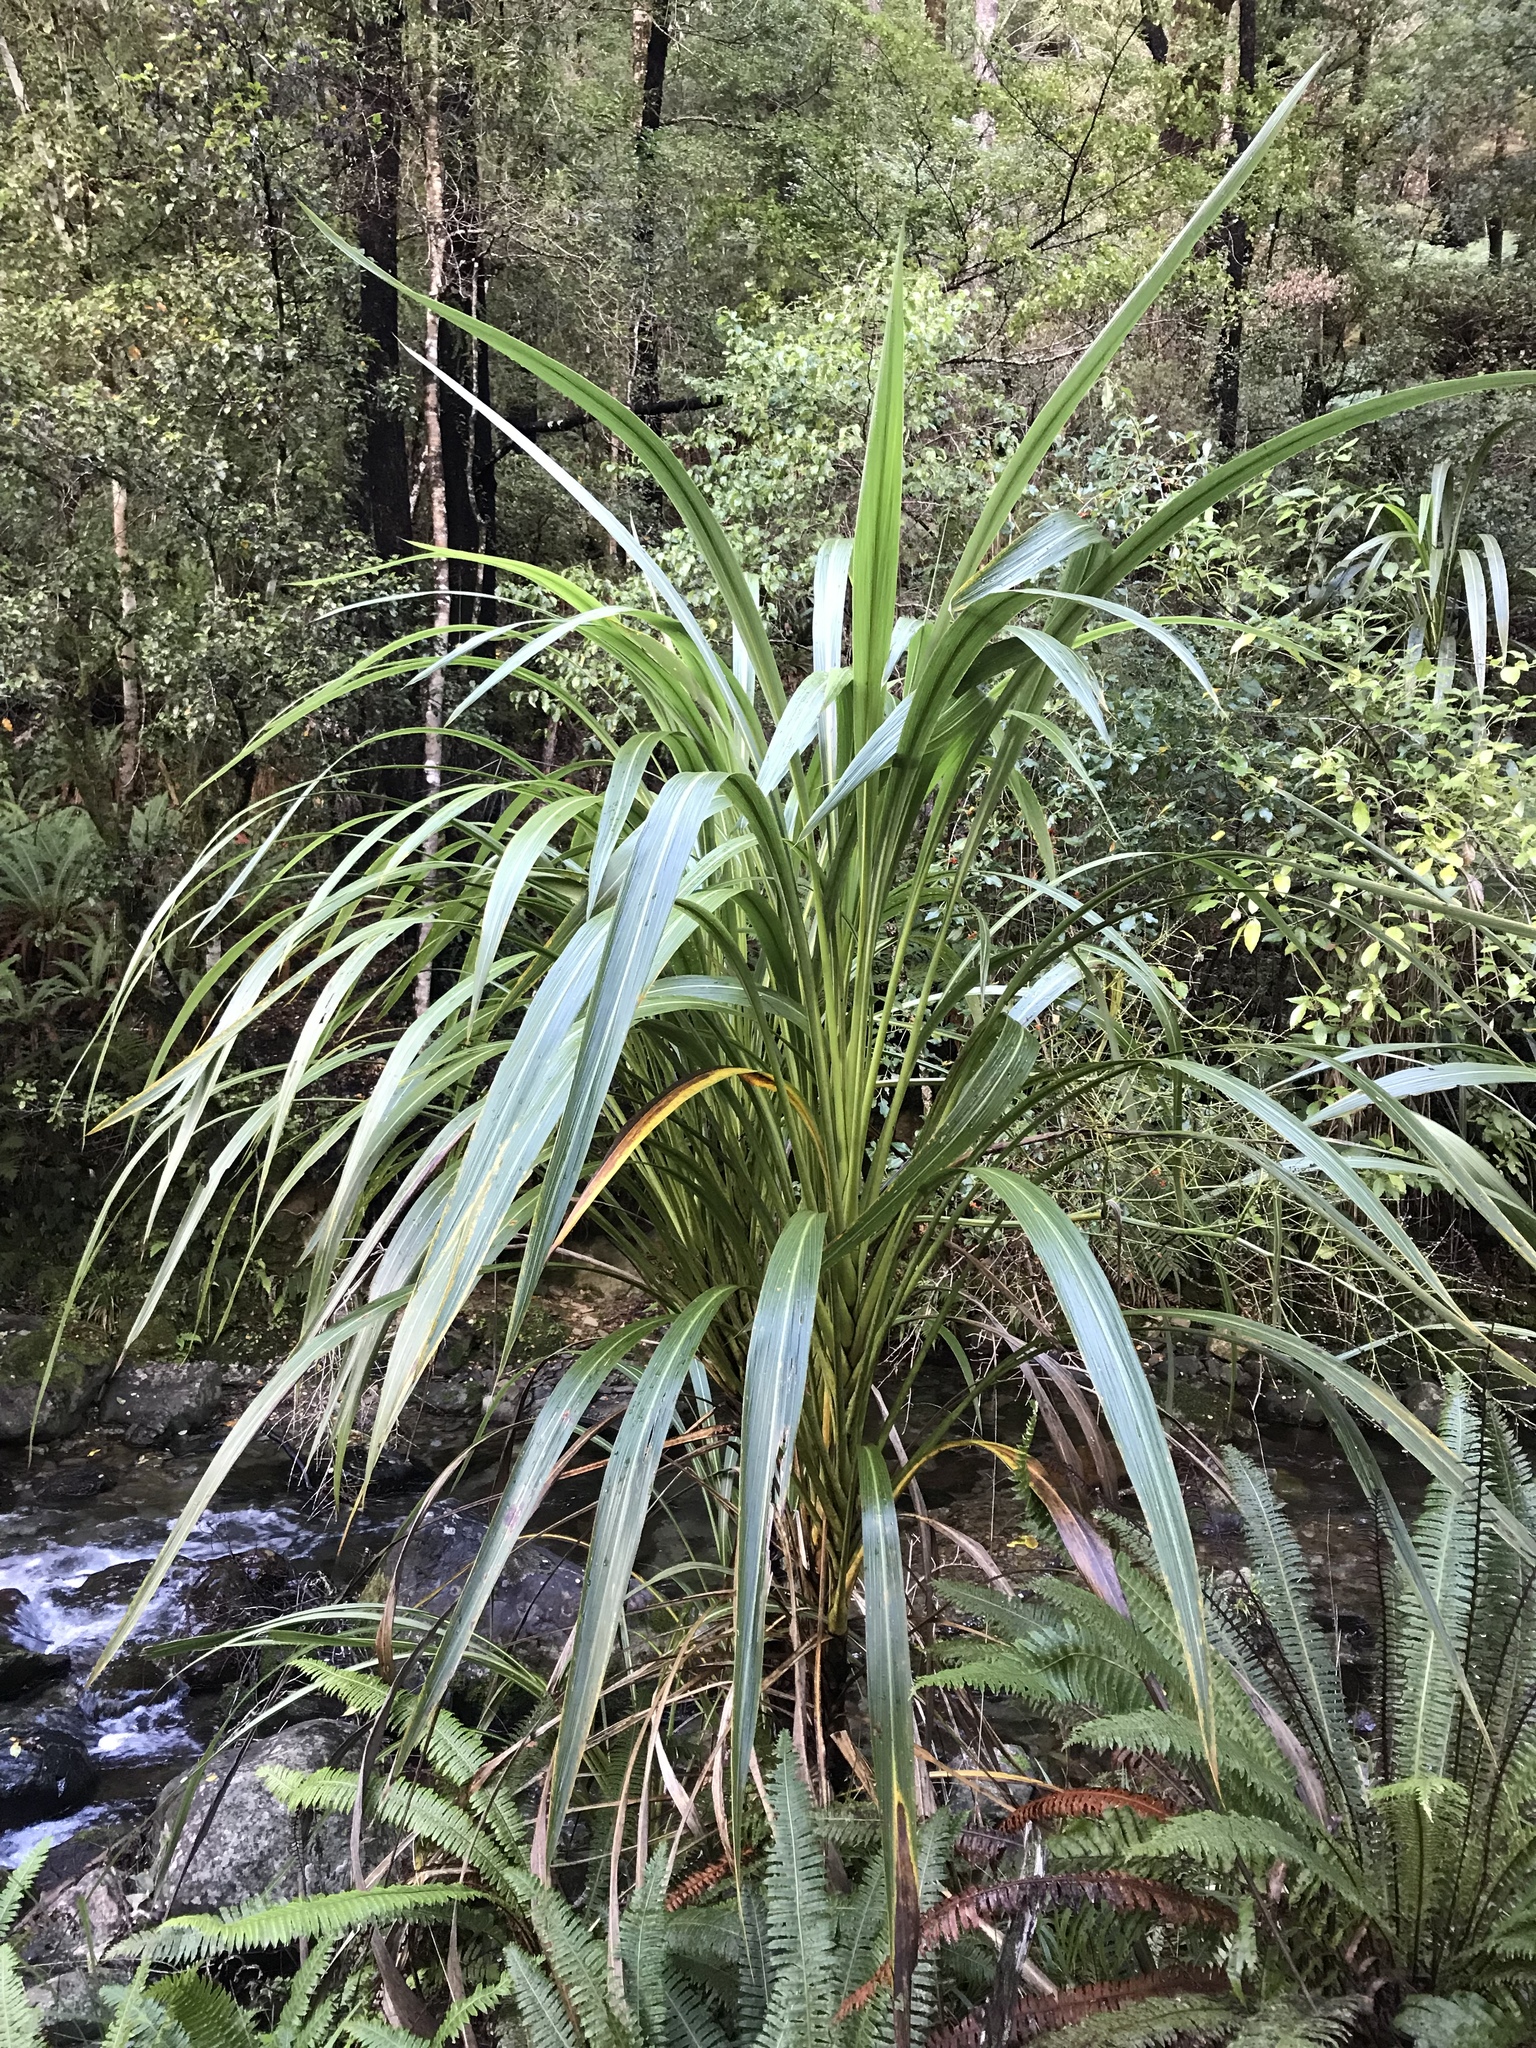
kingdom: Plantae
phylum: Tracheophyta
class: Liliopsida
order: Asparagales
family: Asparagaceae
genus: Cordyline
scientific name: Cordyline banksii
